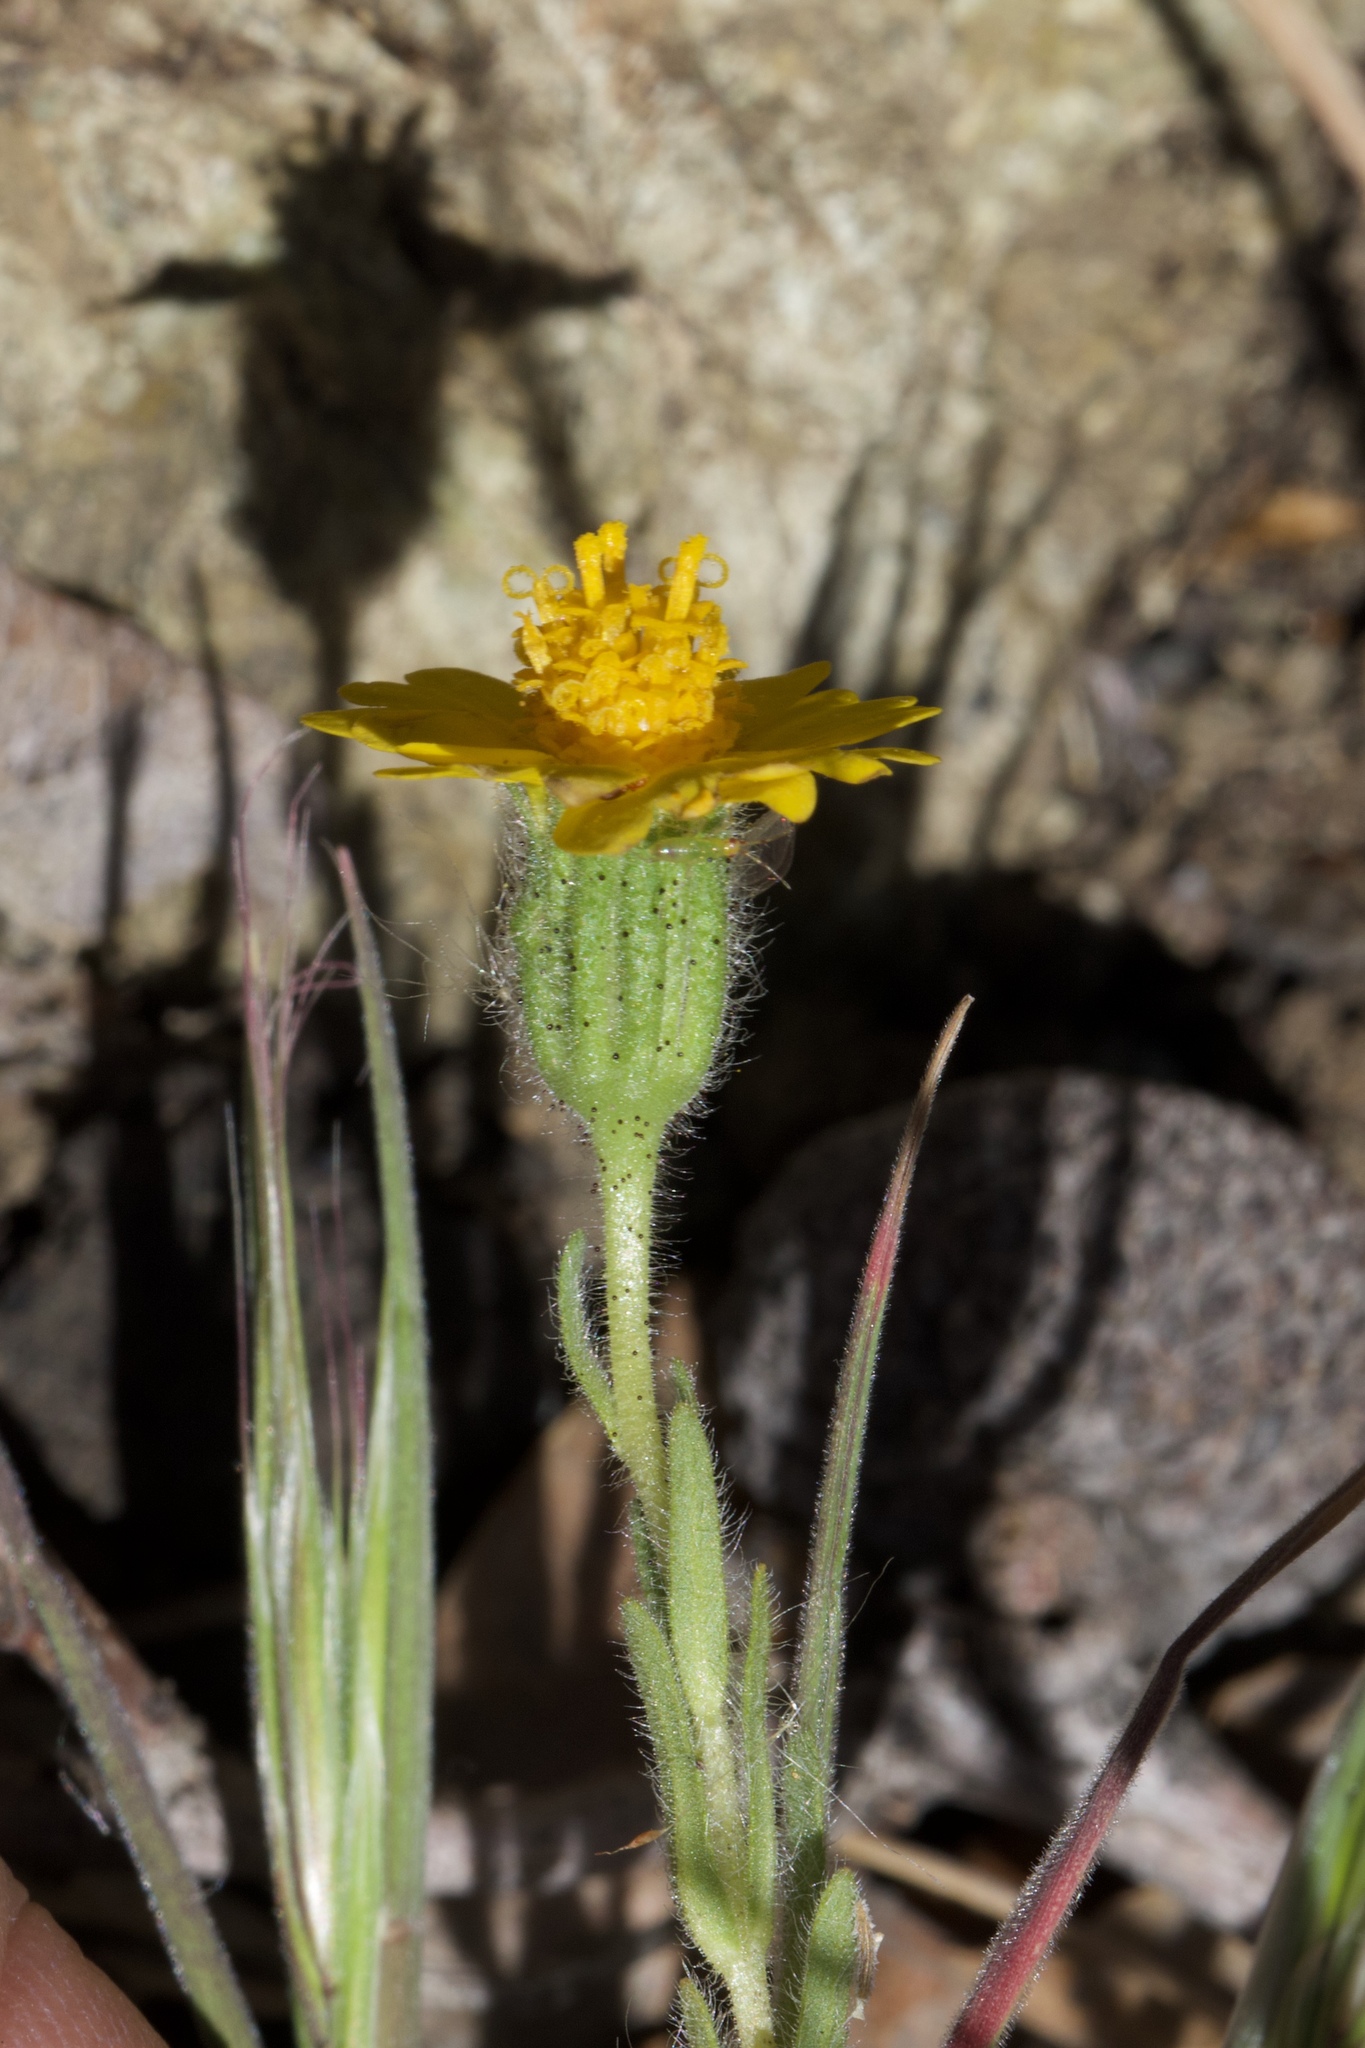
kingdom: Plantae
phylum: Tracheophyta
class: Magnoliopsida
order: Asterales
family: Asteraceae
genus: Layia
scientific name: Layia septentrionalis
